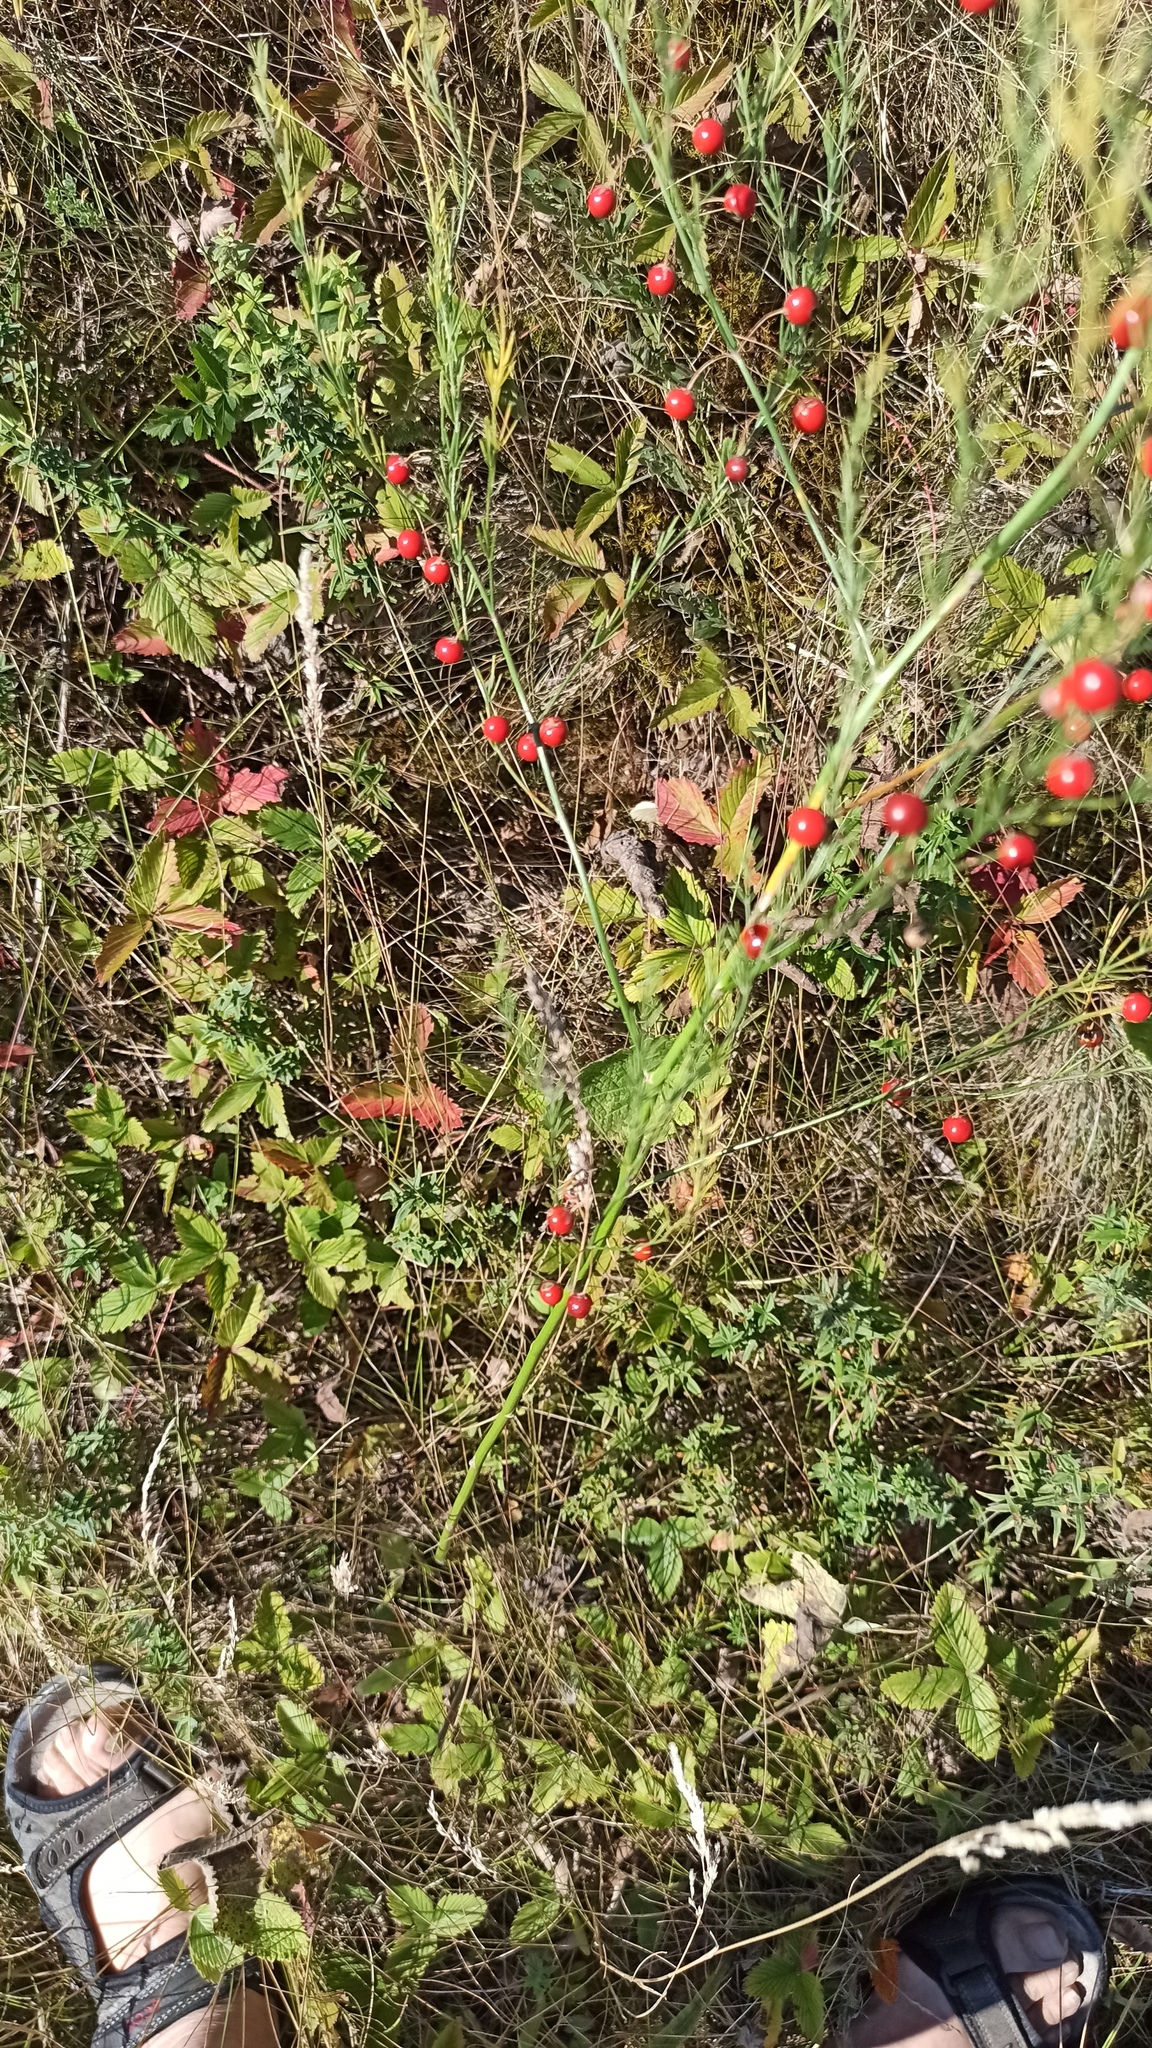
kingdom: Plantae
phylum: Tracheophyta
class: Liliopsida
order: Asparagales
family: Asparagaceae
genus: Asparagus
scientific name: Asparagus officinalis
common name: Garden asparagus
